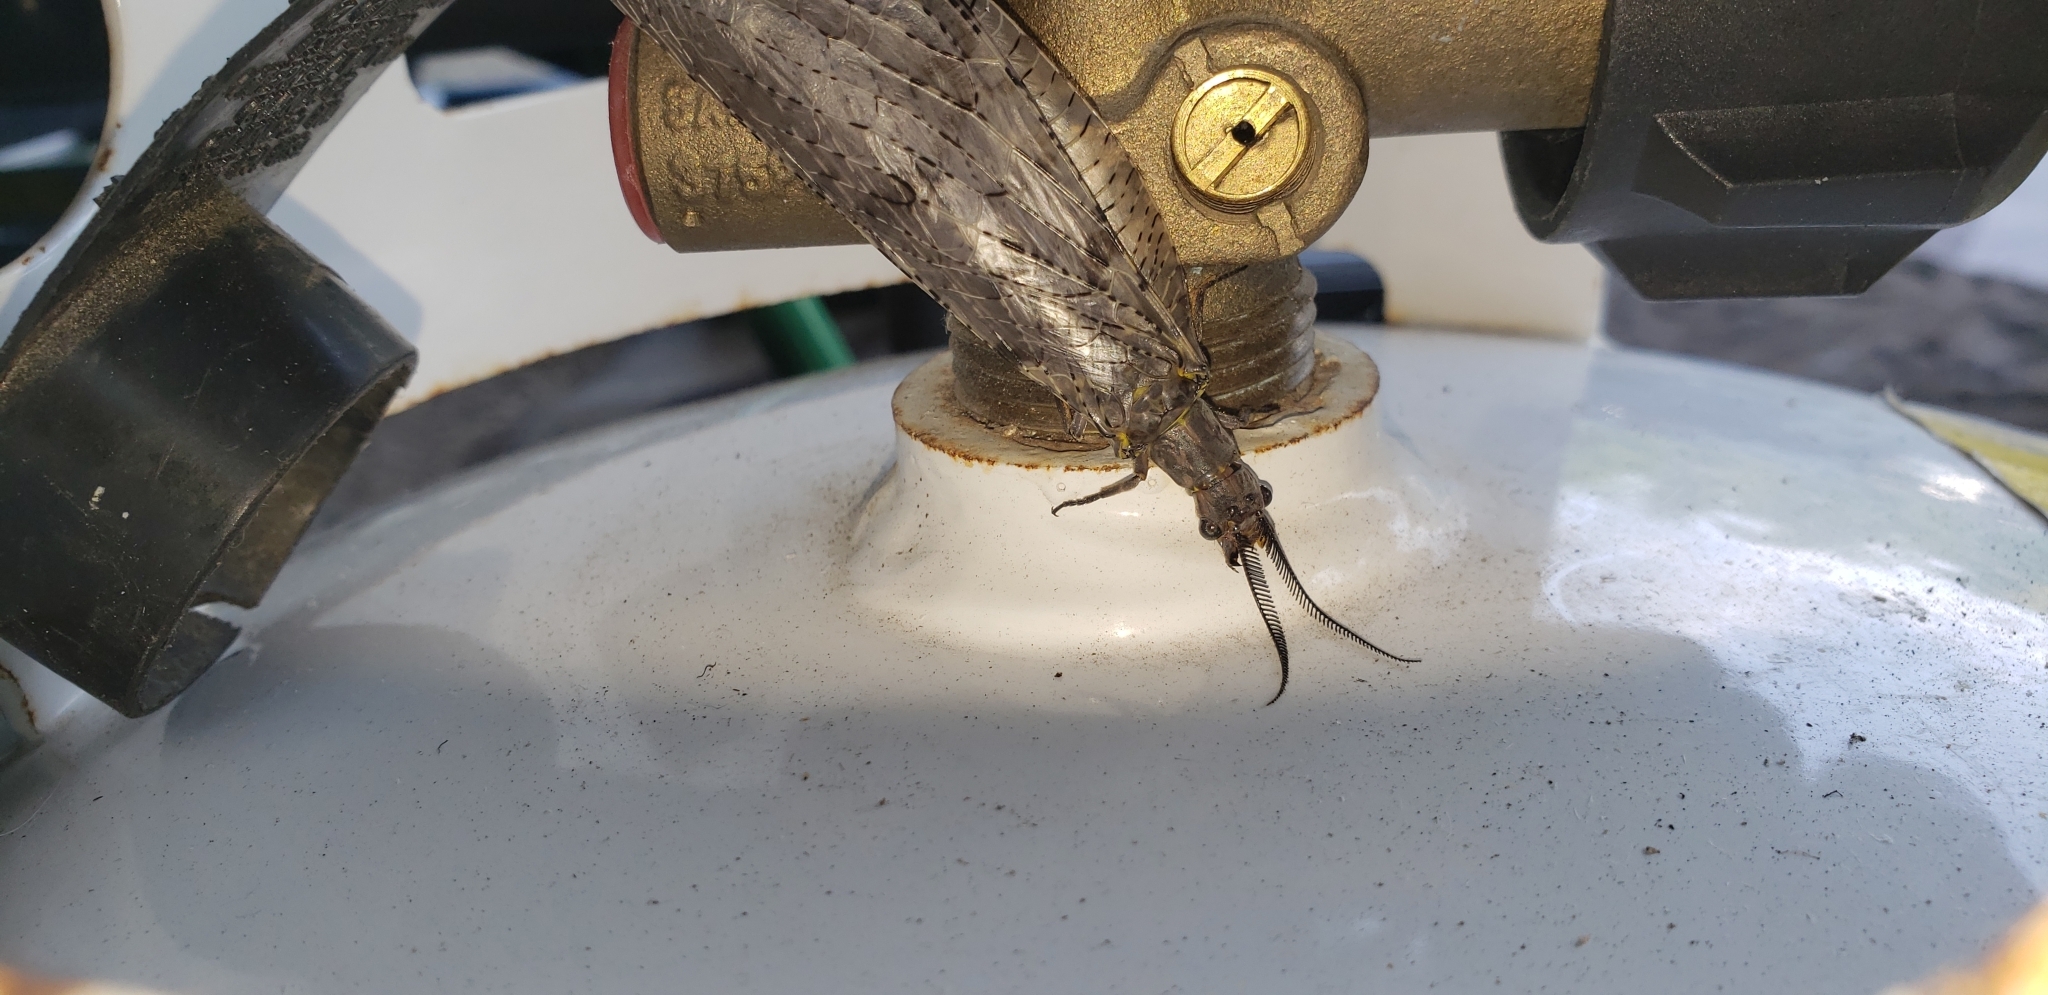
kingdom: Animalia
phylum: Arthropoda
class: Insecta
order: Megaloptera
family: Corydalidae
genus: Chauliodes
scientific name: Chauliodes pectinicornis
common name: Summer fishfly
